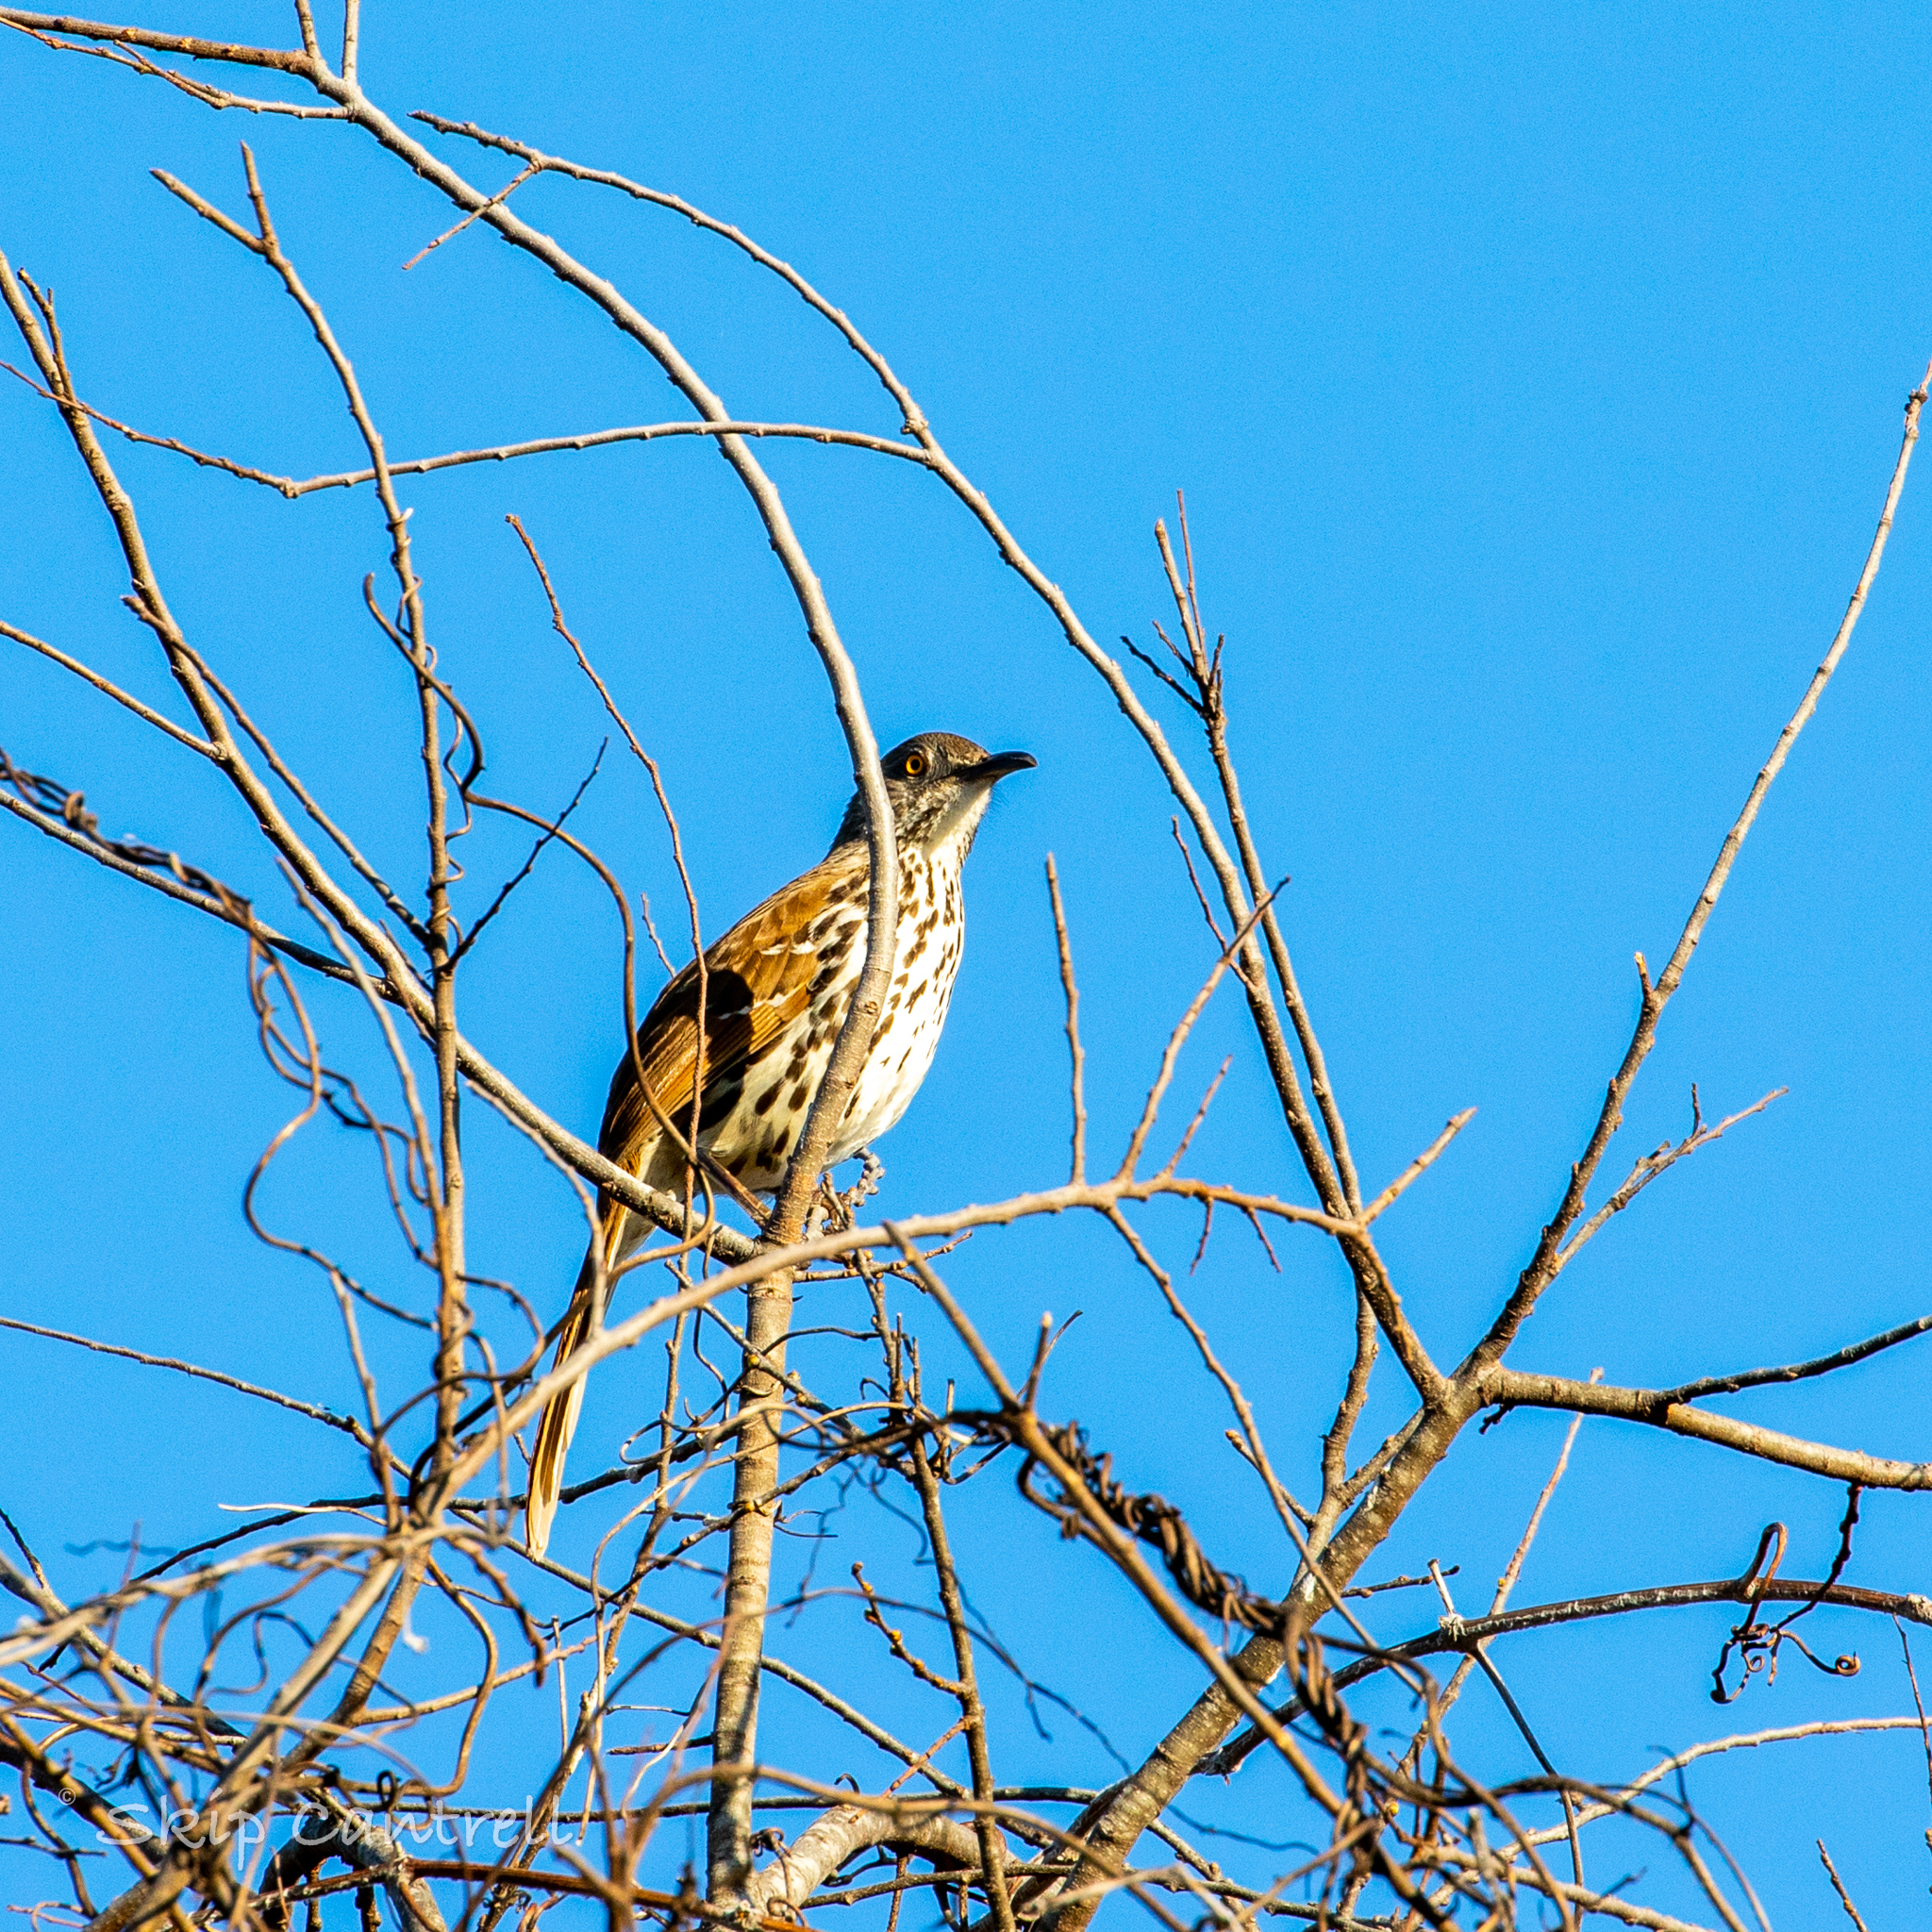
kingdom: Animalia
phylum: Chordata
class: Aves
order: Passeriformes
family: Mimidae
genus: Toxostoma
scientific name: Toxostoma longirostre
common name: Long-billed thrasher
